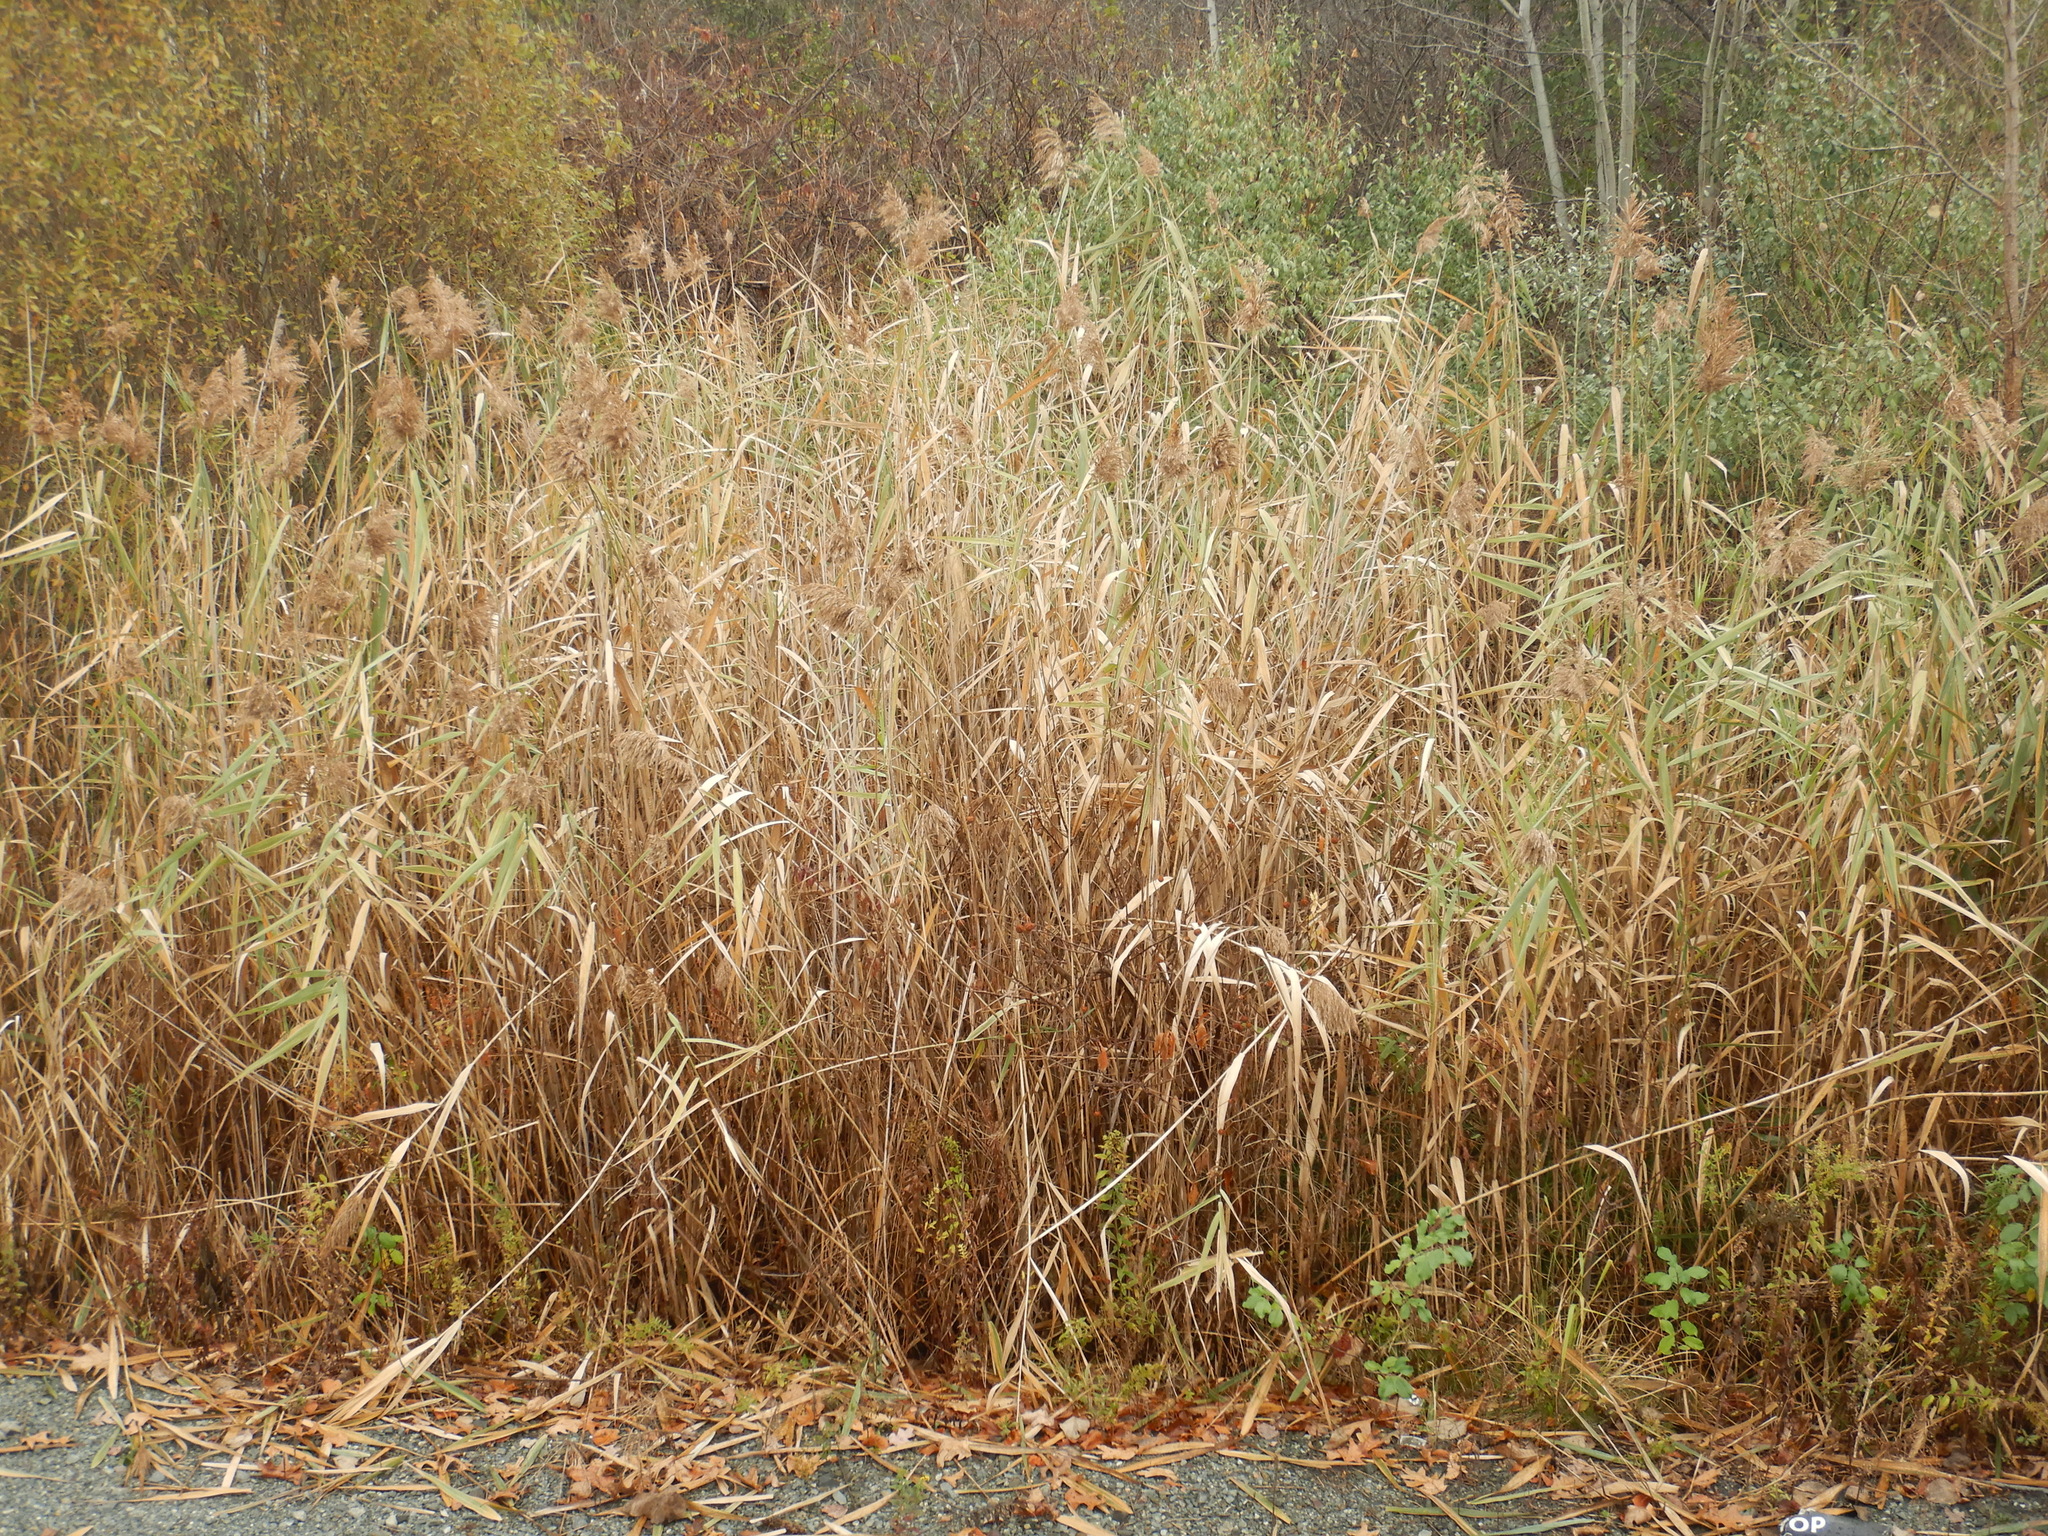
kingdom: Plantae
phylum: Tracheophyta
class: Liliopsida
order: Poales
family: Poaceae
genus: Phragmites
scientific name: Phragmites australis
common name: Common reed
